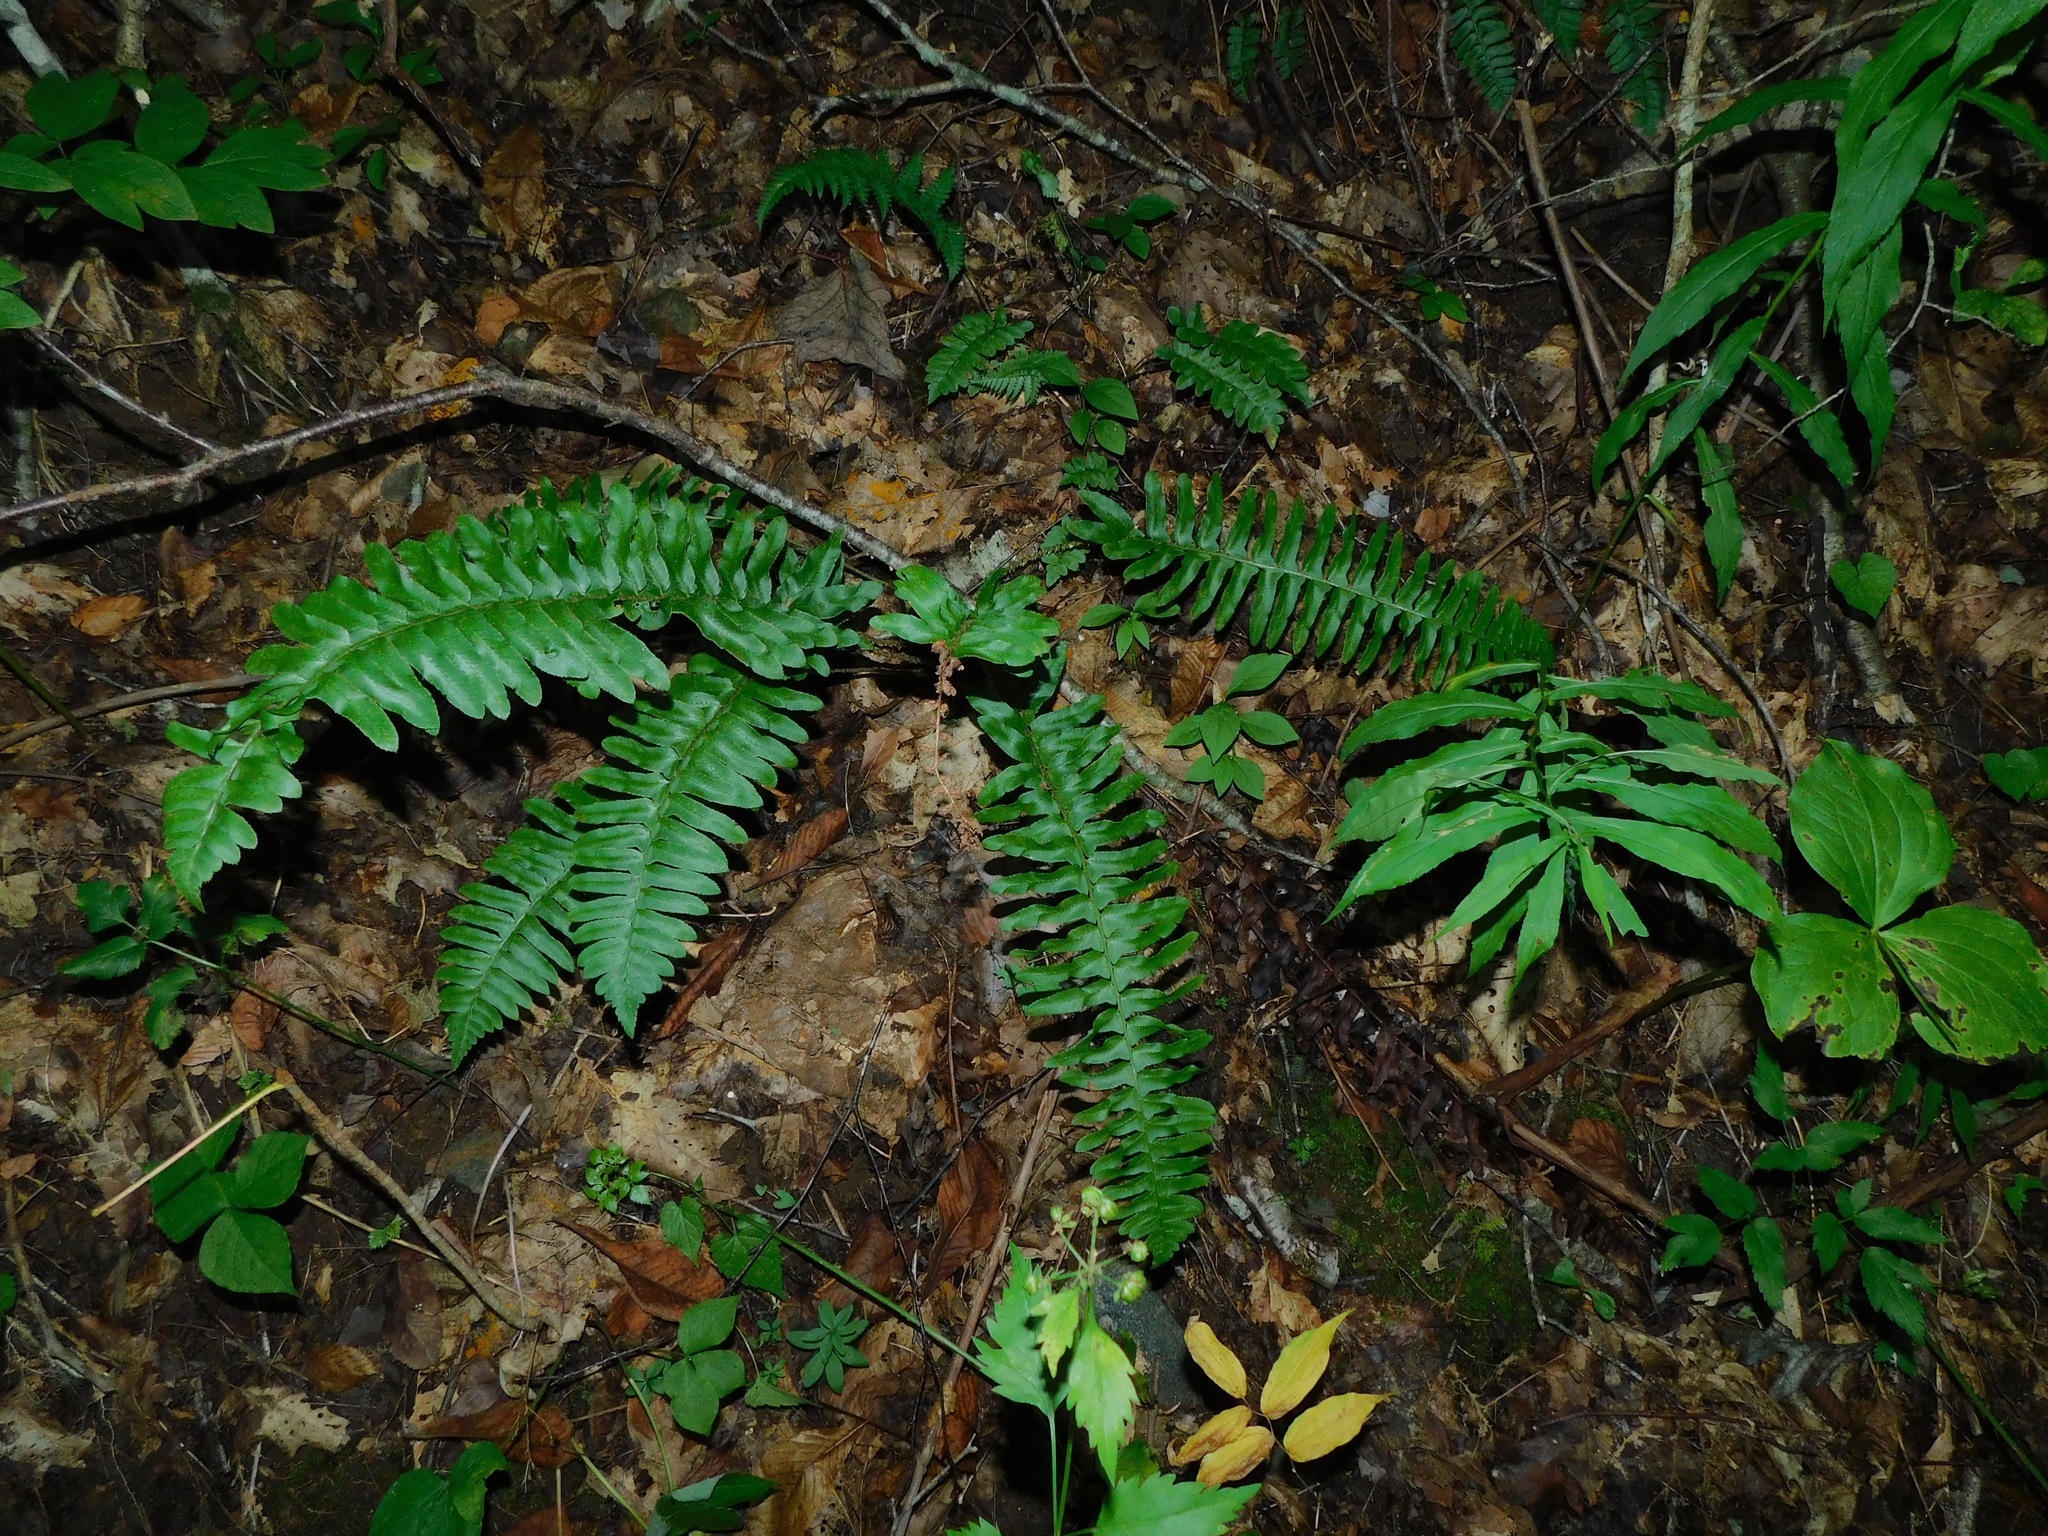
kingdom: Plantae
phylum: Tracheophyta
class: Polypodiopsida
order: Polypodiales
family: Dryopteridaceae
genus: Polystichum
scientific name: Polystichum acrostichoides
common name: Christmas fern
